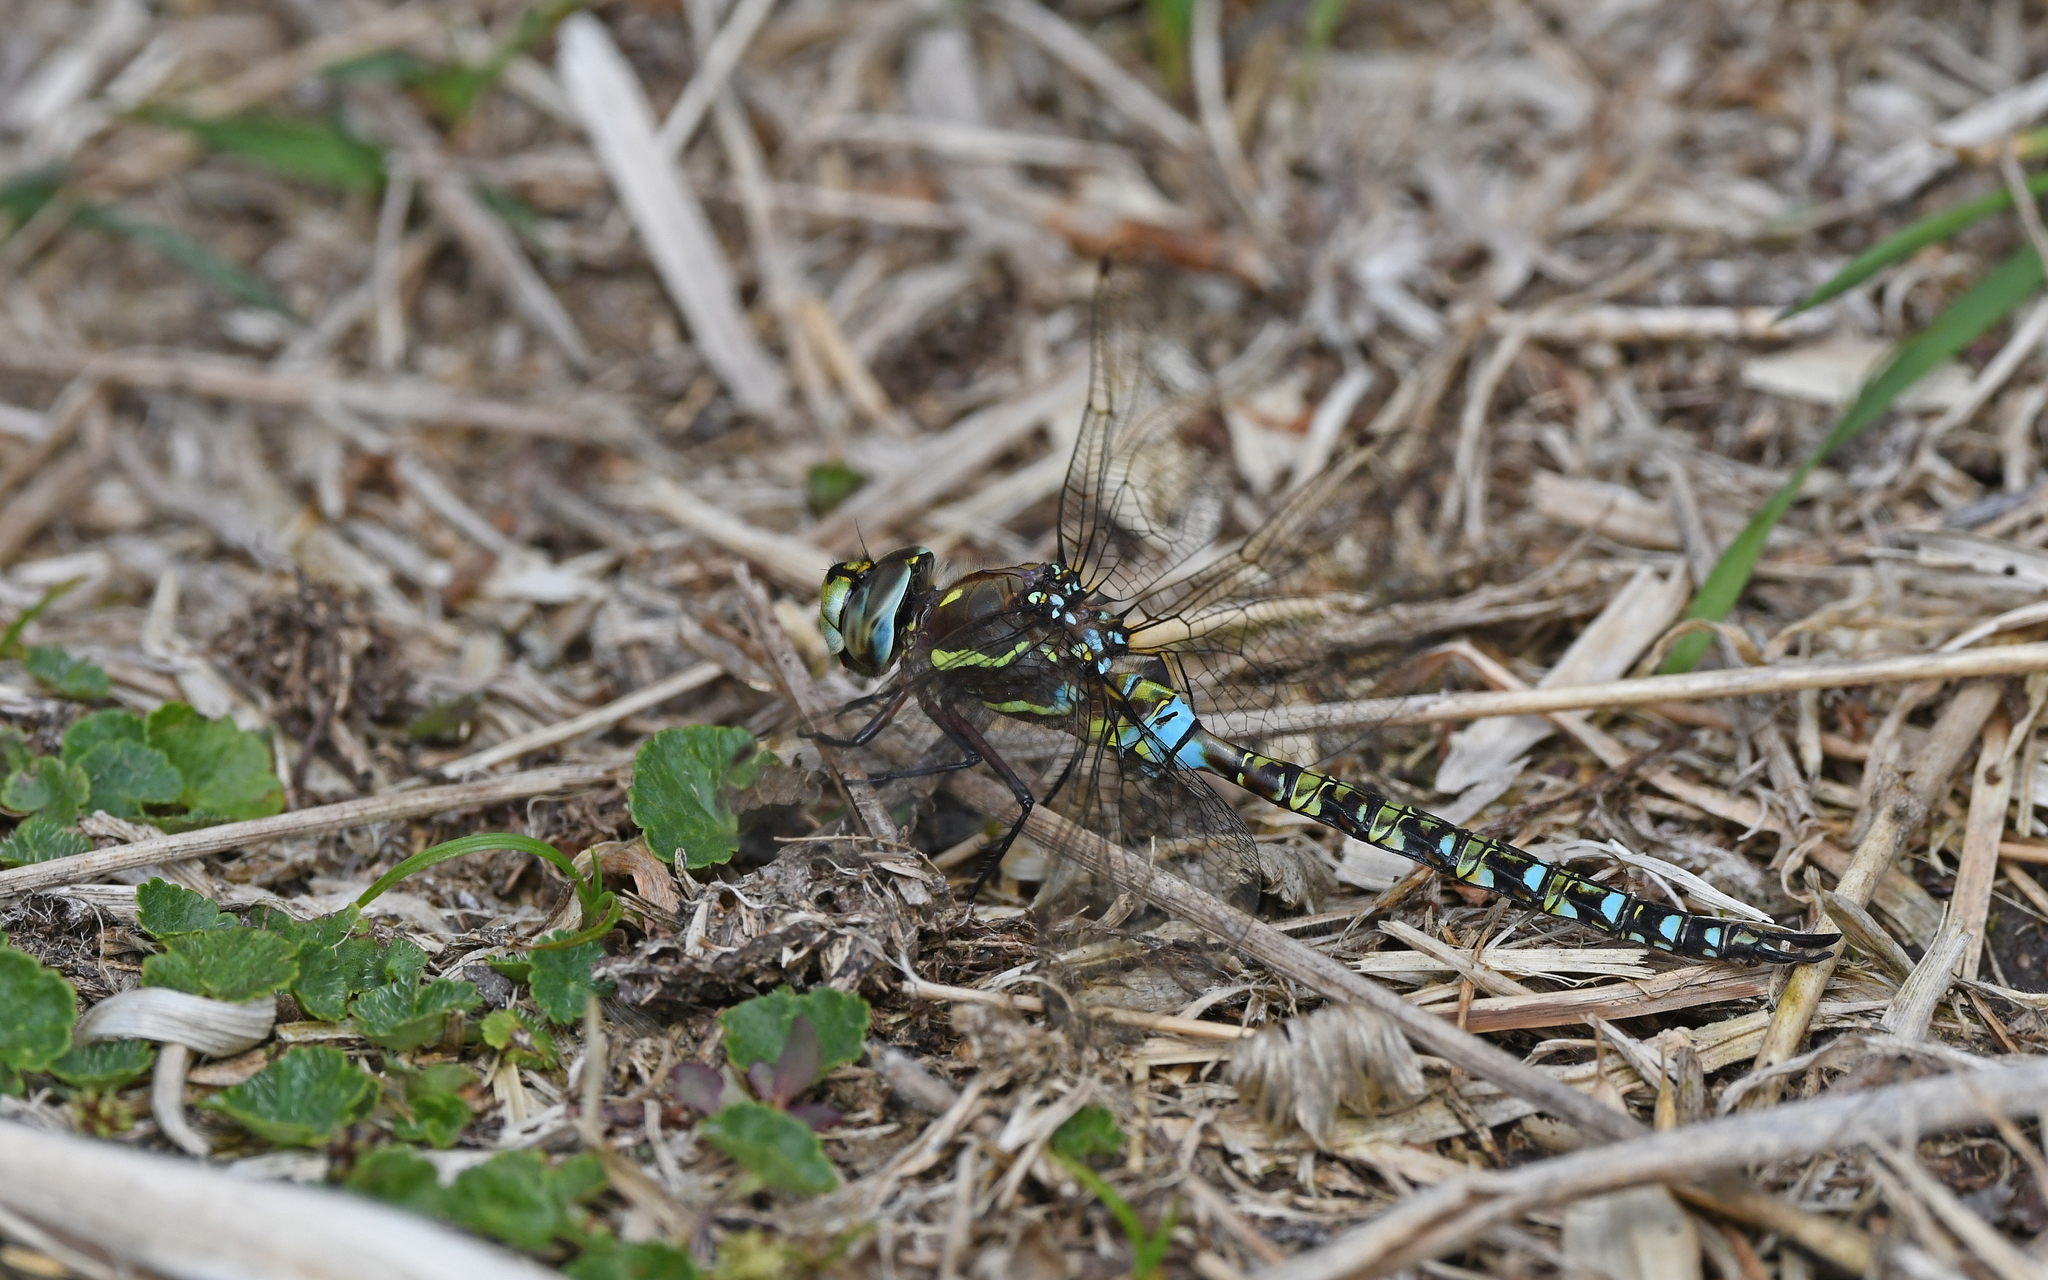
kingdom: Animalia
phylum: Arthropoda
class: Insecta
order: Odonata
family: Aeshnidae
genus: Rhionaeschna
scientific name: Rhionaeschna marchali
